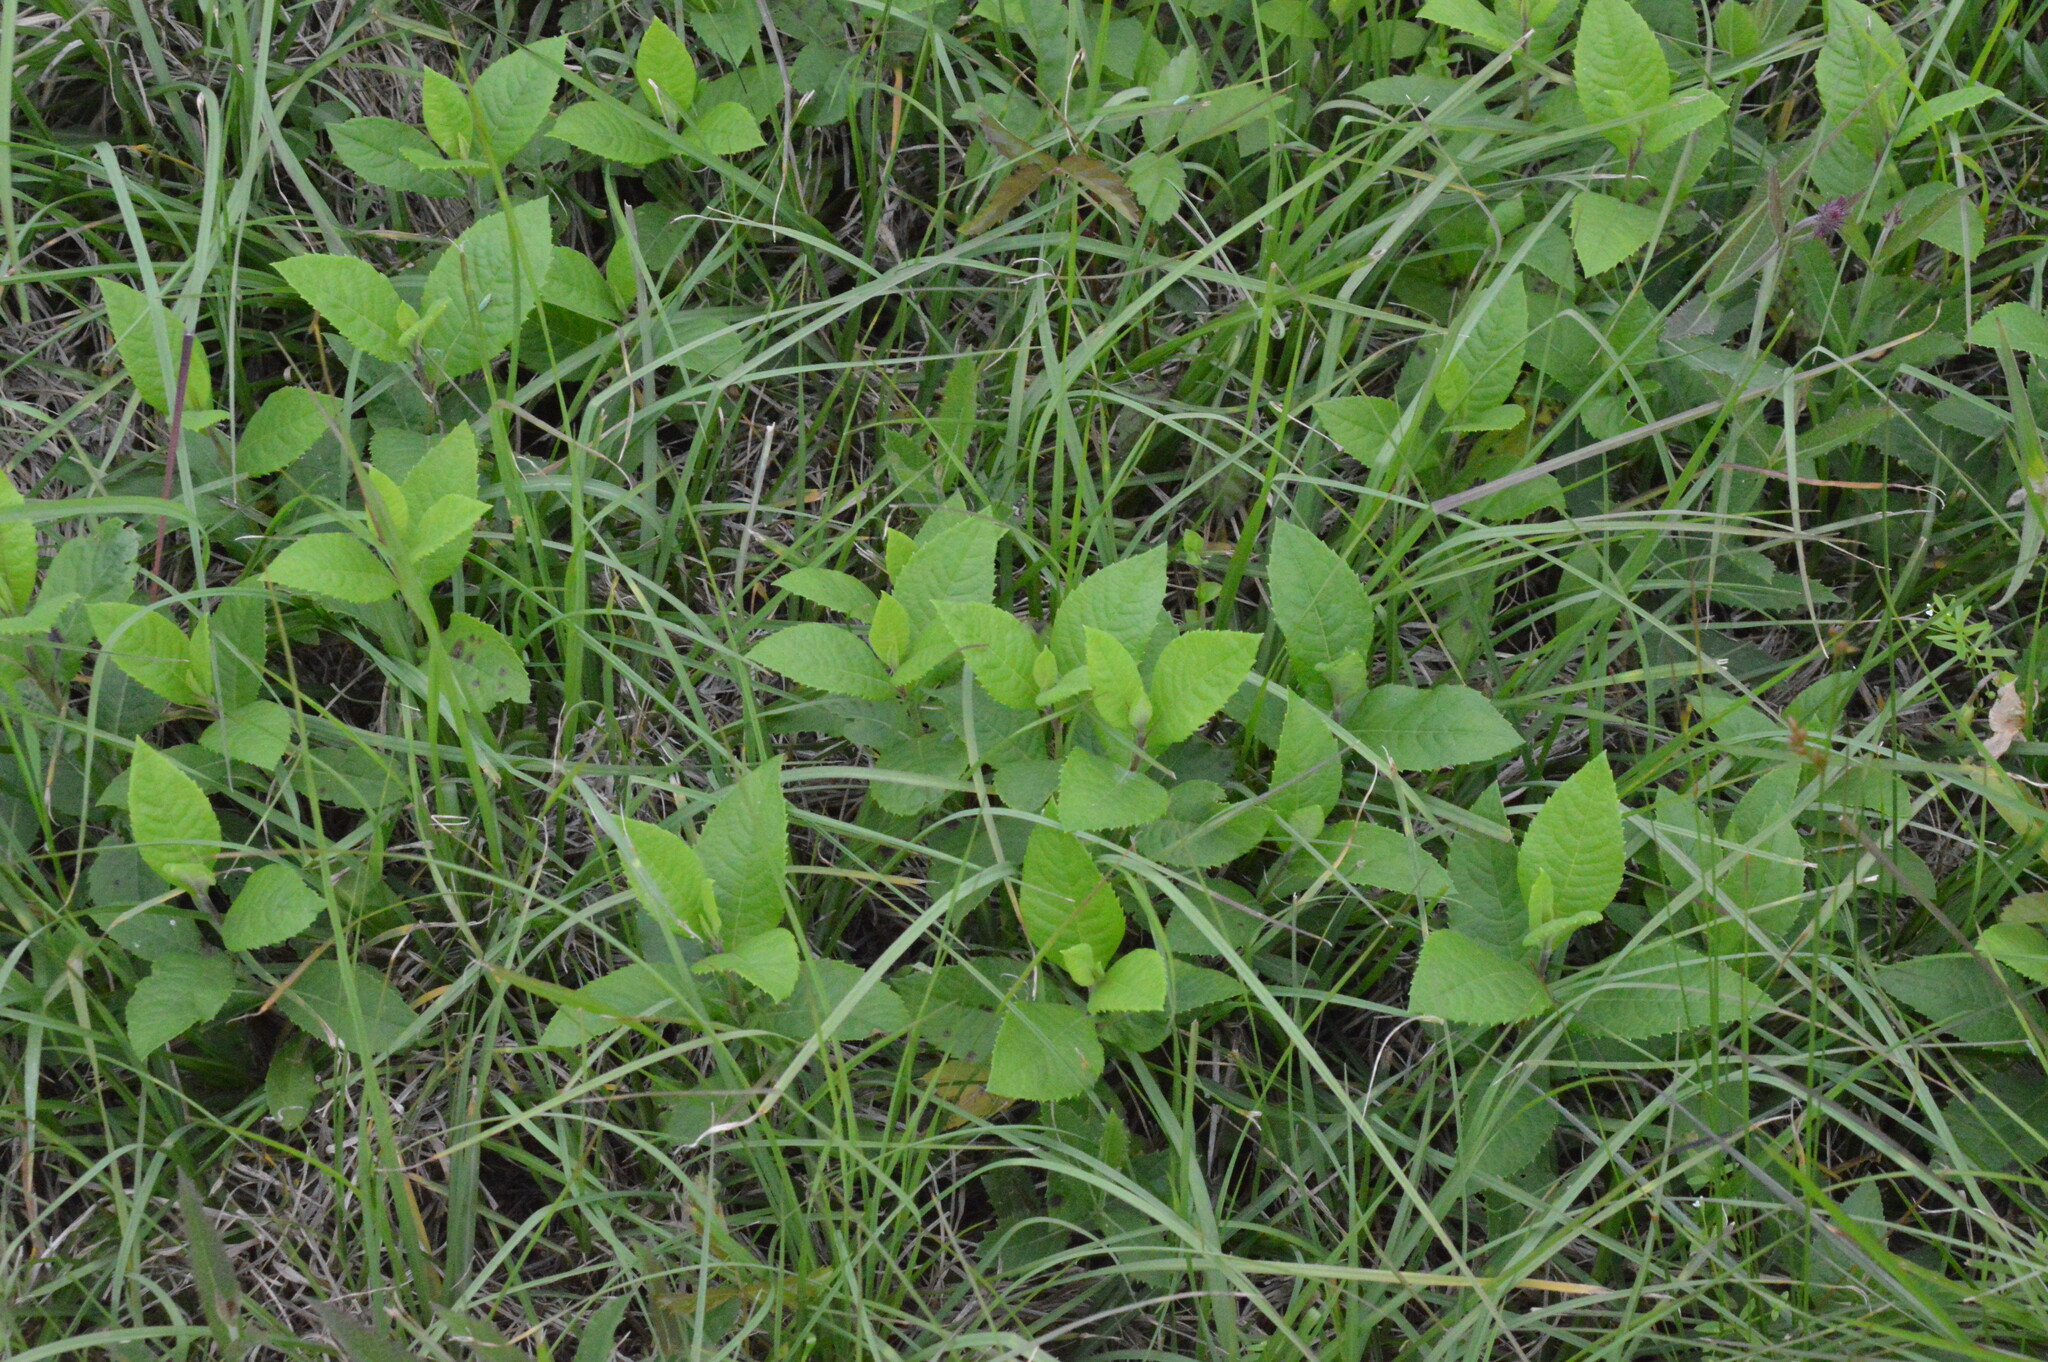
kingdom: Plantae
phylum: Tracheophyta
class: Magnoliopsida
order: Asterales
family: Asteraceae
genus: Vernonia
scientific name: Vernonia missurica
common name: Missouri ironweed
